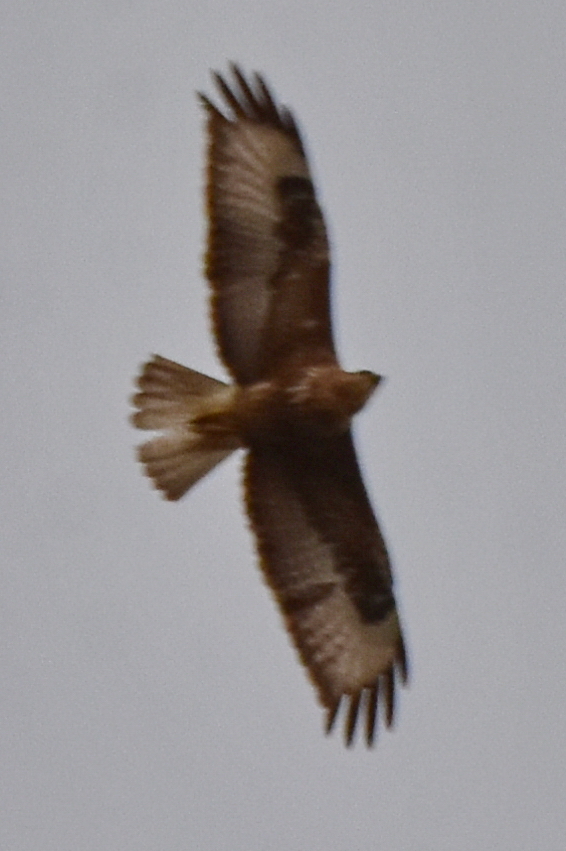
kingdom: Animalia
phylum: Chordata
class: Aves
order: Accipitriformes
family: Accipitridae
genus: Buteo
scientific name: Buteo rufinus
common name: Long-legged buzzard
